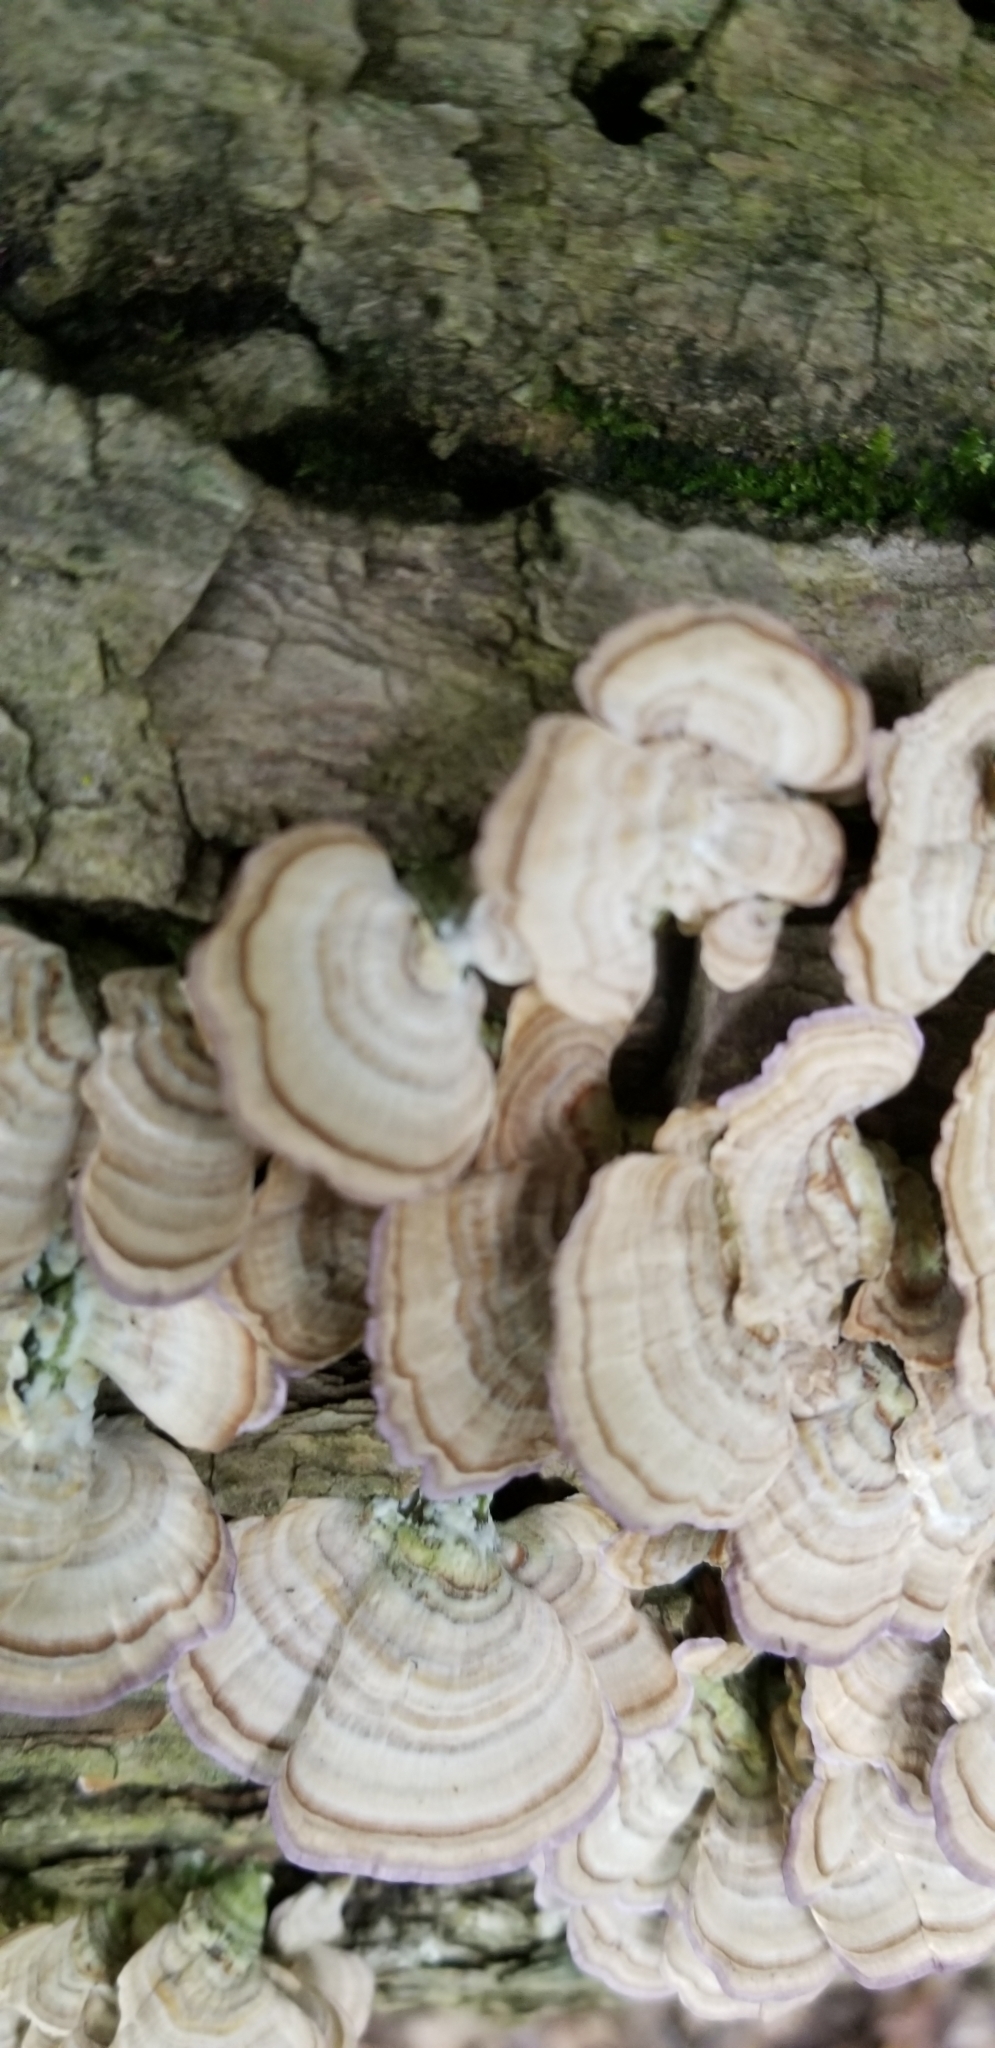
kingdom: Fungi
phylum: Basidiomycota
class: Agaricomycetes
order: Hymenochaetales
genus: Trichaptum
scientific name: Trichaptum biforme
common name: Violet-toothed polypore
